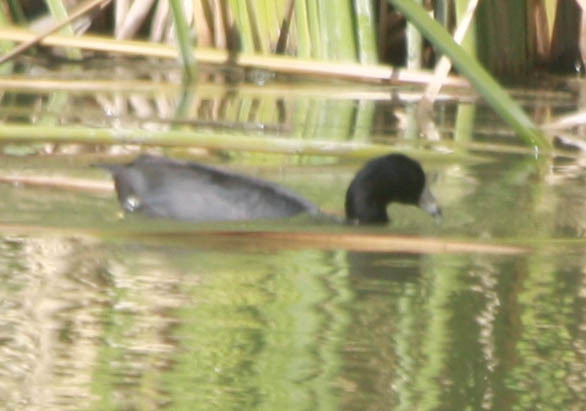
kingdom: Animalia
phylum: Chordata
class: Aves
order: Gruiformes
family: Rallidae
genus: Fulica
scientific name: Fulica americana
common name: American coot
